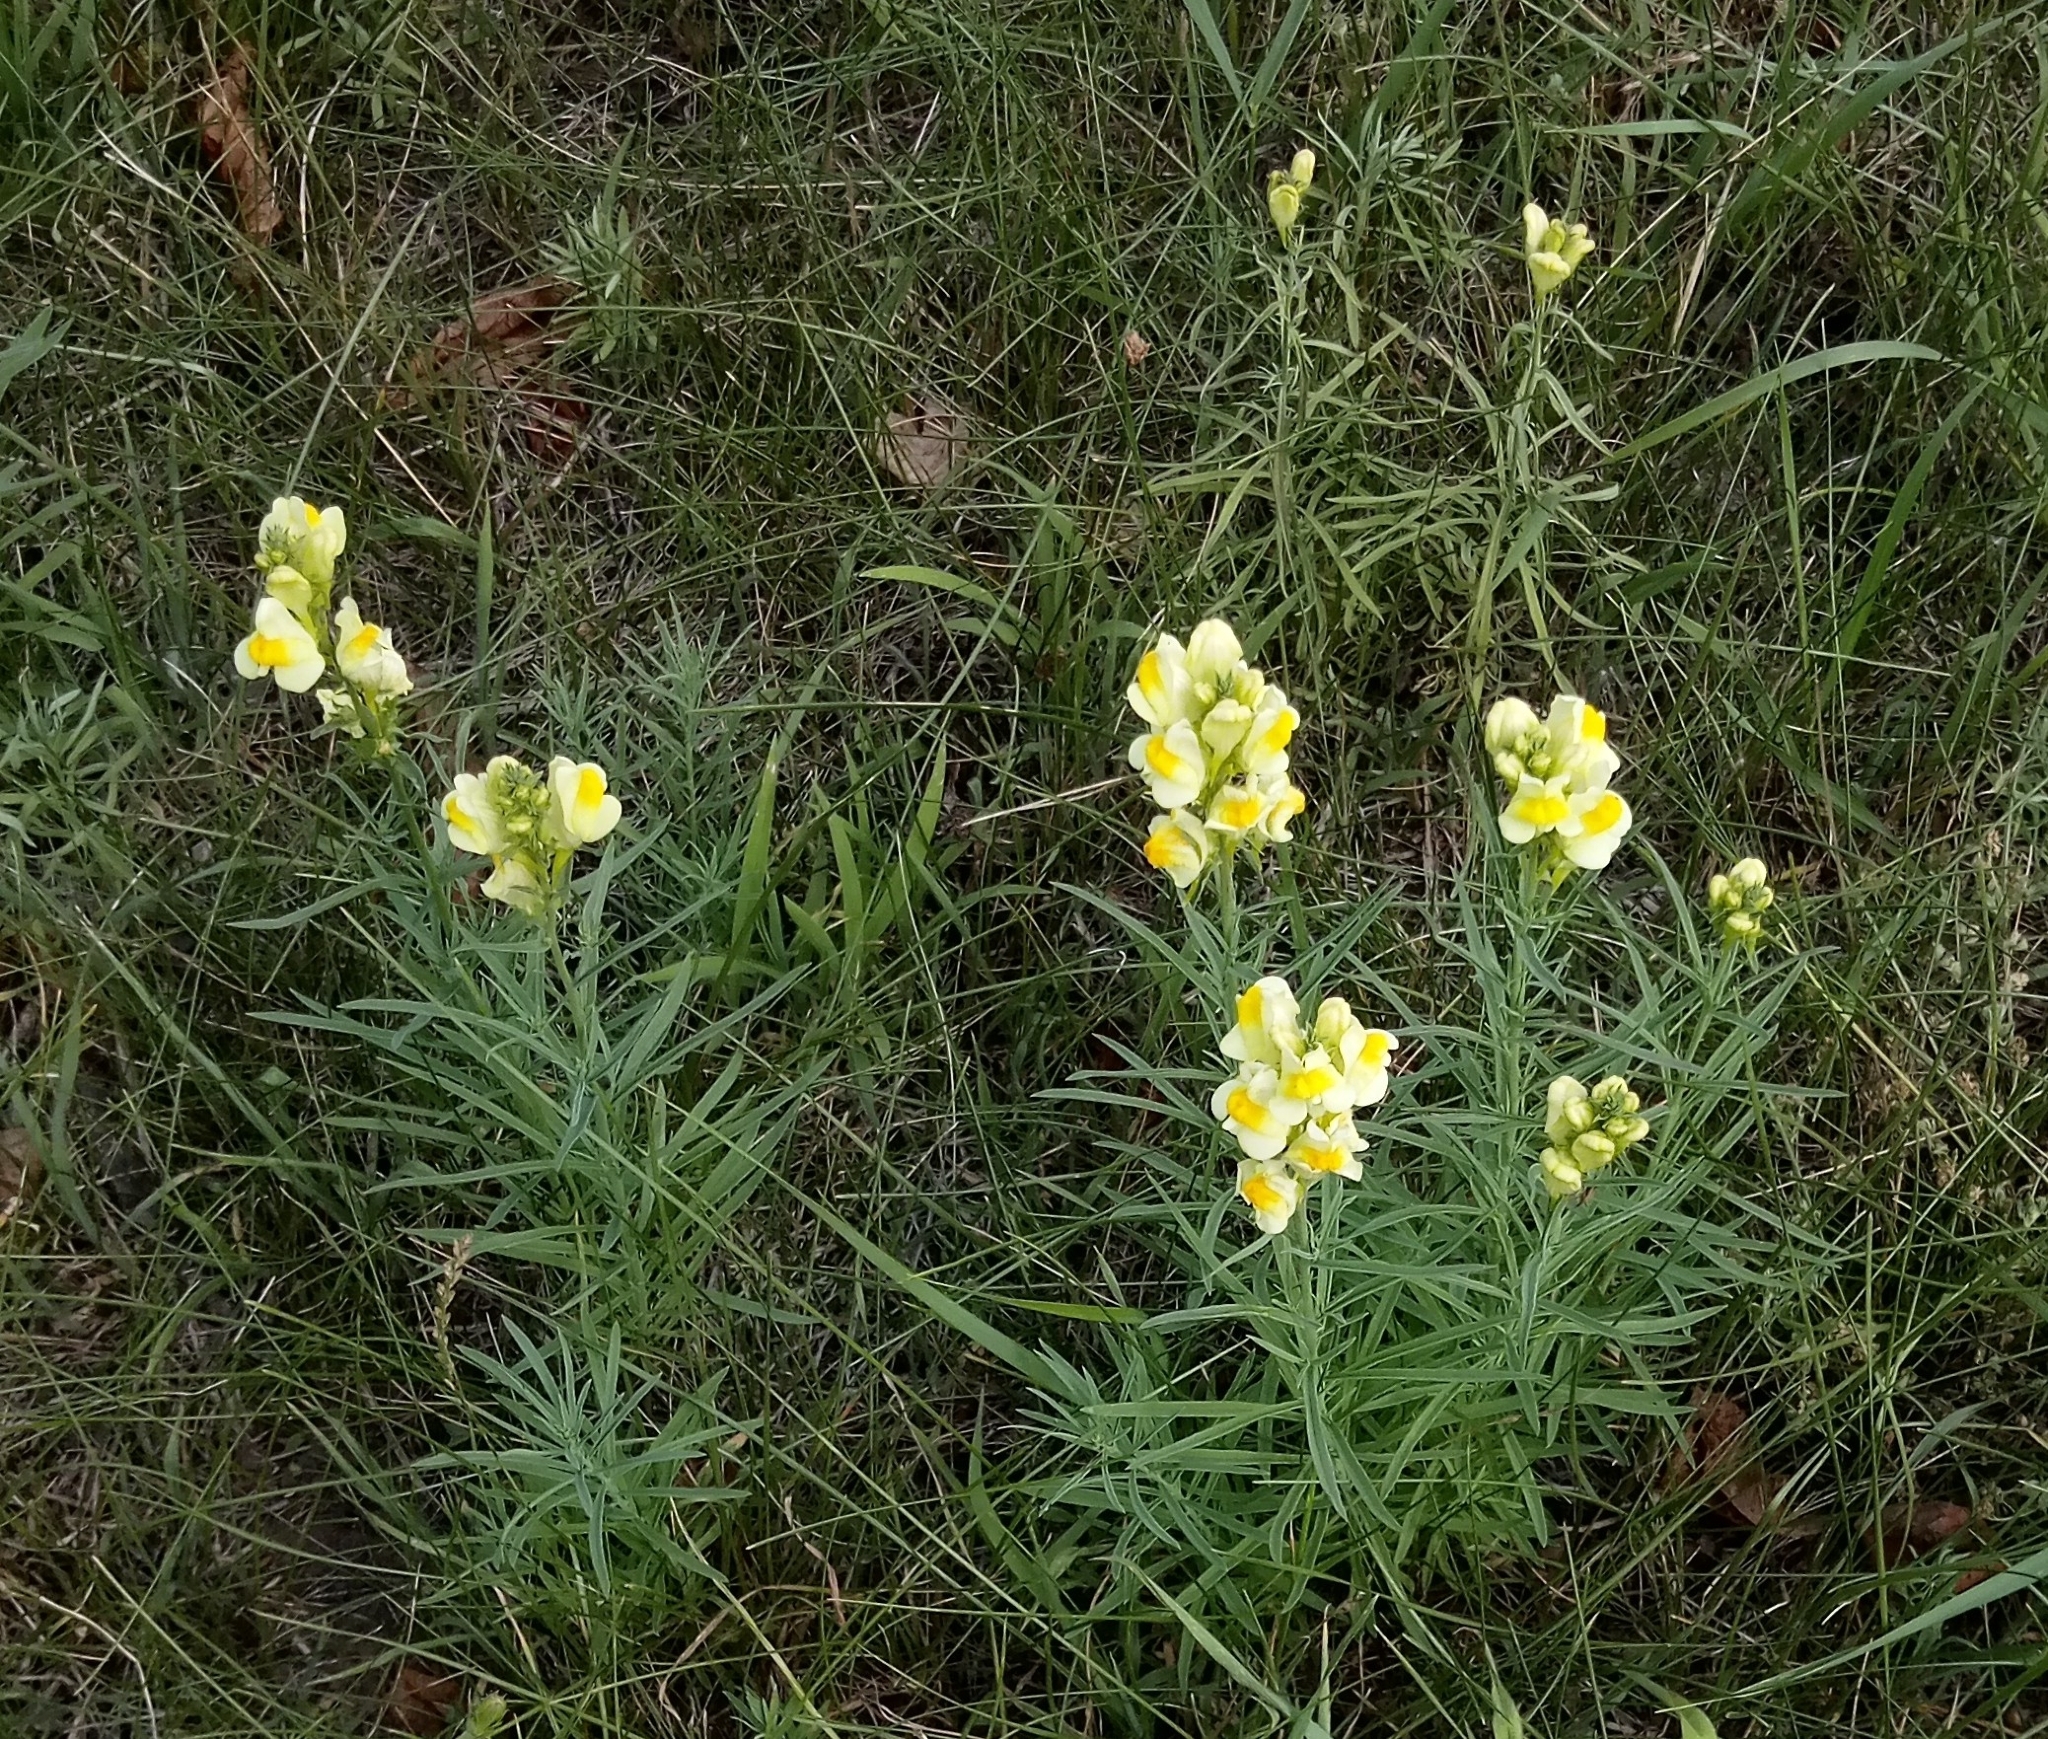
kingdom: Plantae
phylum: Tracheophyta
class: Magnoliopsida
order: Lamiales
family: Plantaginaceae
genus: Linaria
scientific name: Linaria vulgaris
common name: Butter and eggs
